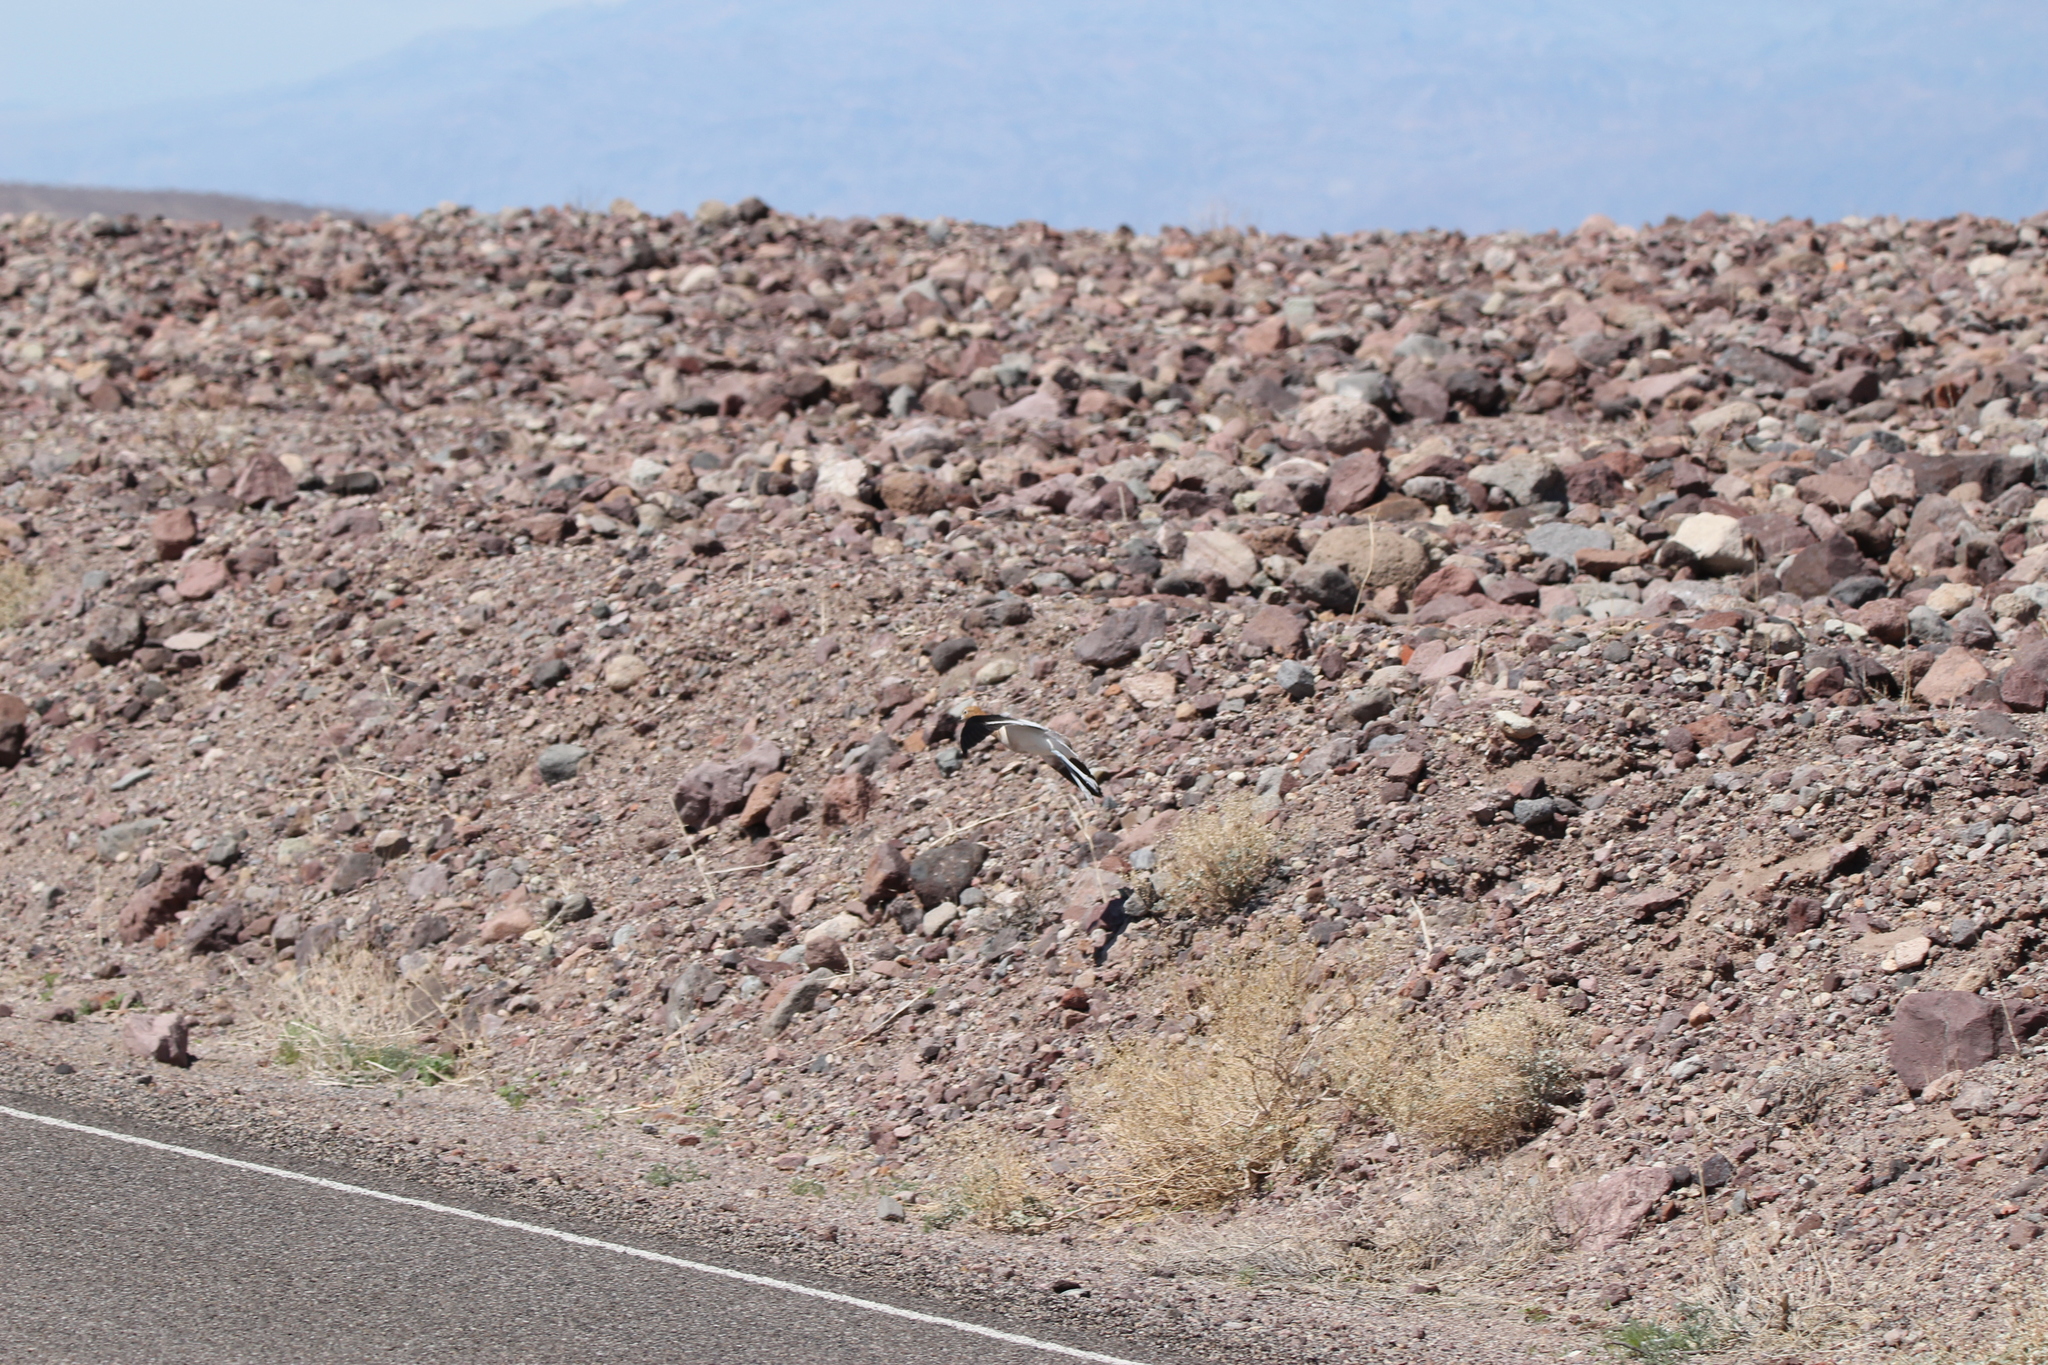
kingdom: Animalia
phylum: Chordata
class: Aves
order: Charadriiformes
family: Recurvirostridae
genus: Recurvirostra
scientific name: Recurvirostra americana
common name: American avocet
